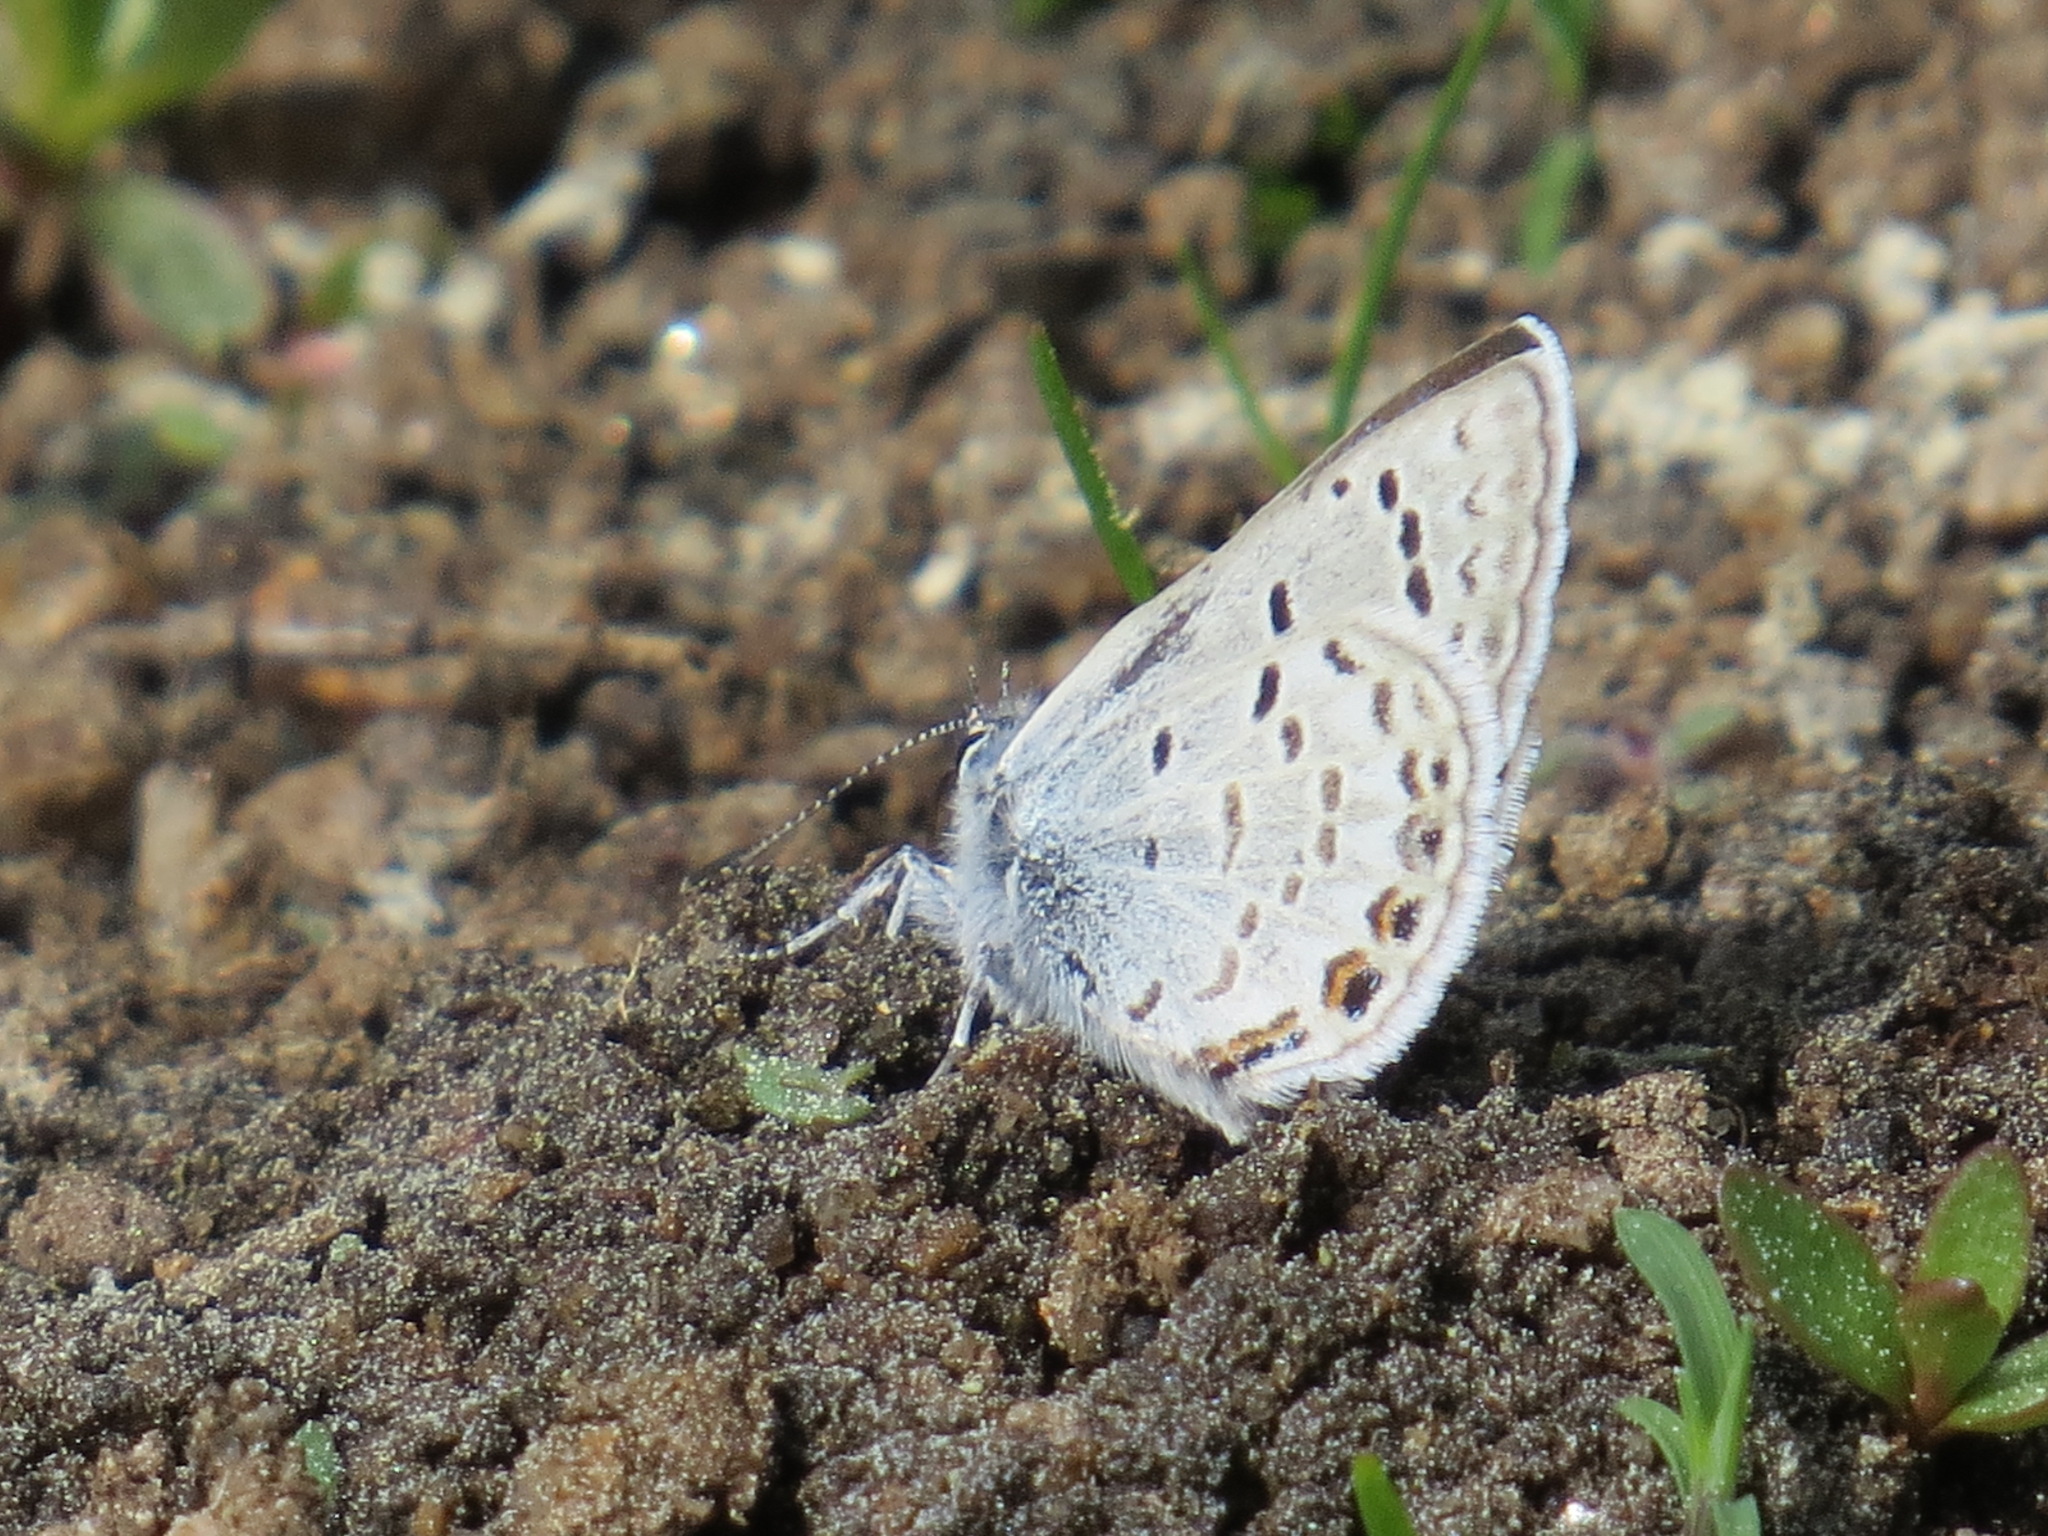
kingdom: Animalia
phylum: Arthropoda
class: Insecta
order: Lepidoptera
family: Lycaenidae
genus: Icaricia
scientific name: Icaricia shasta
